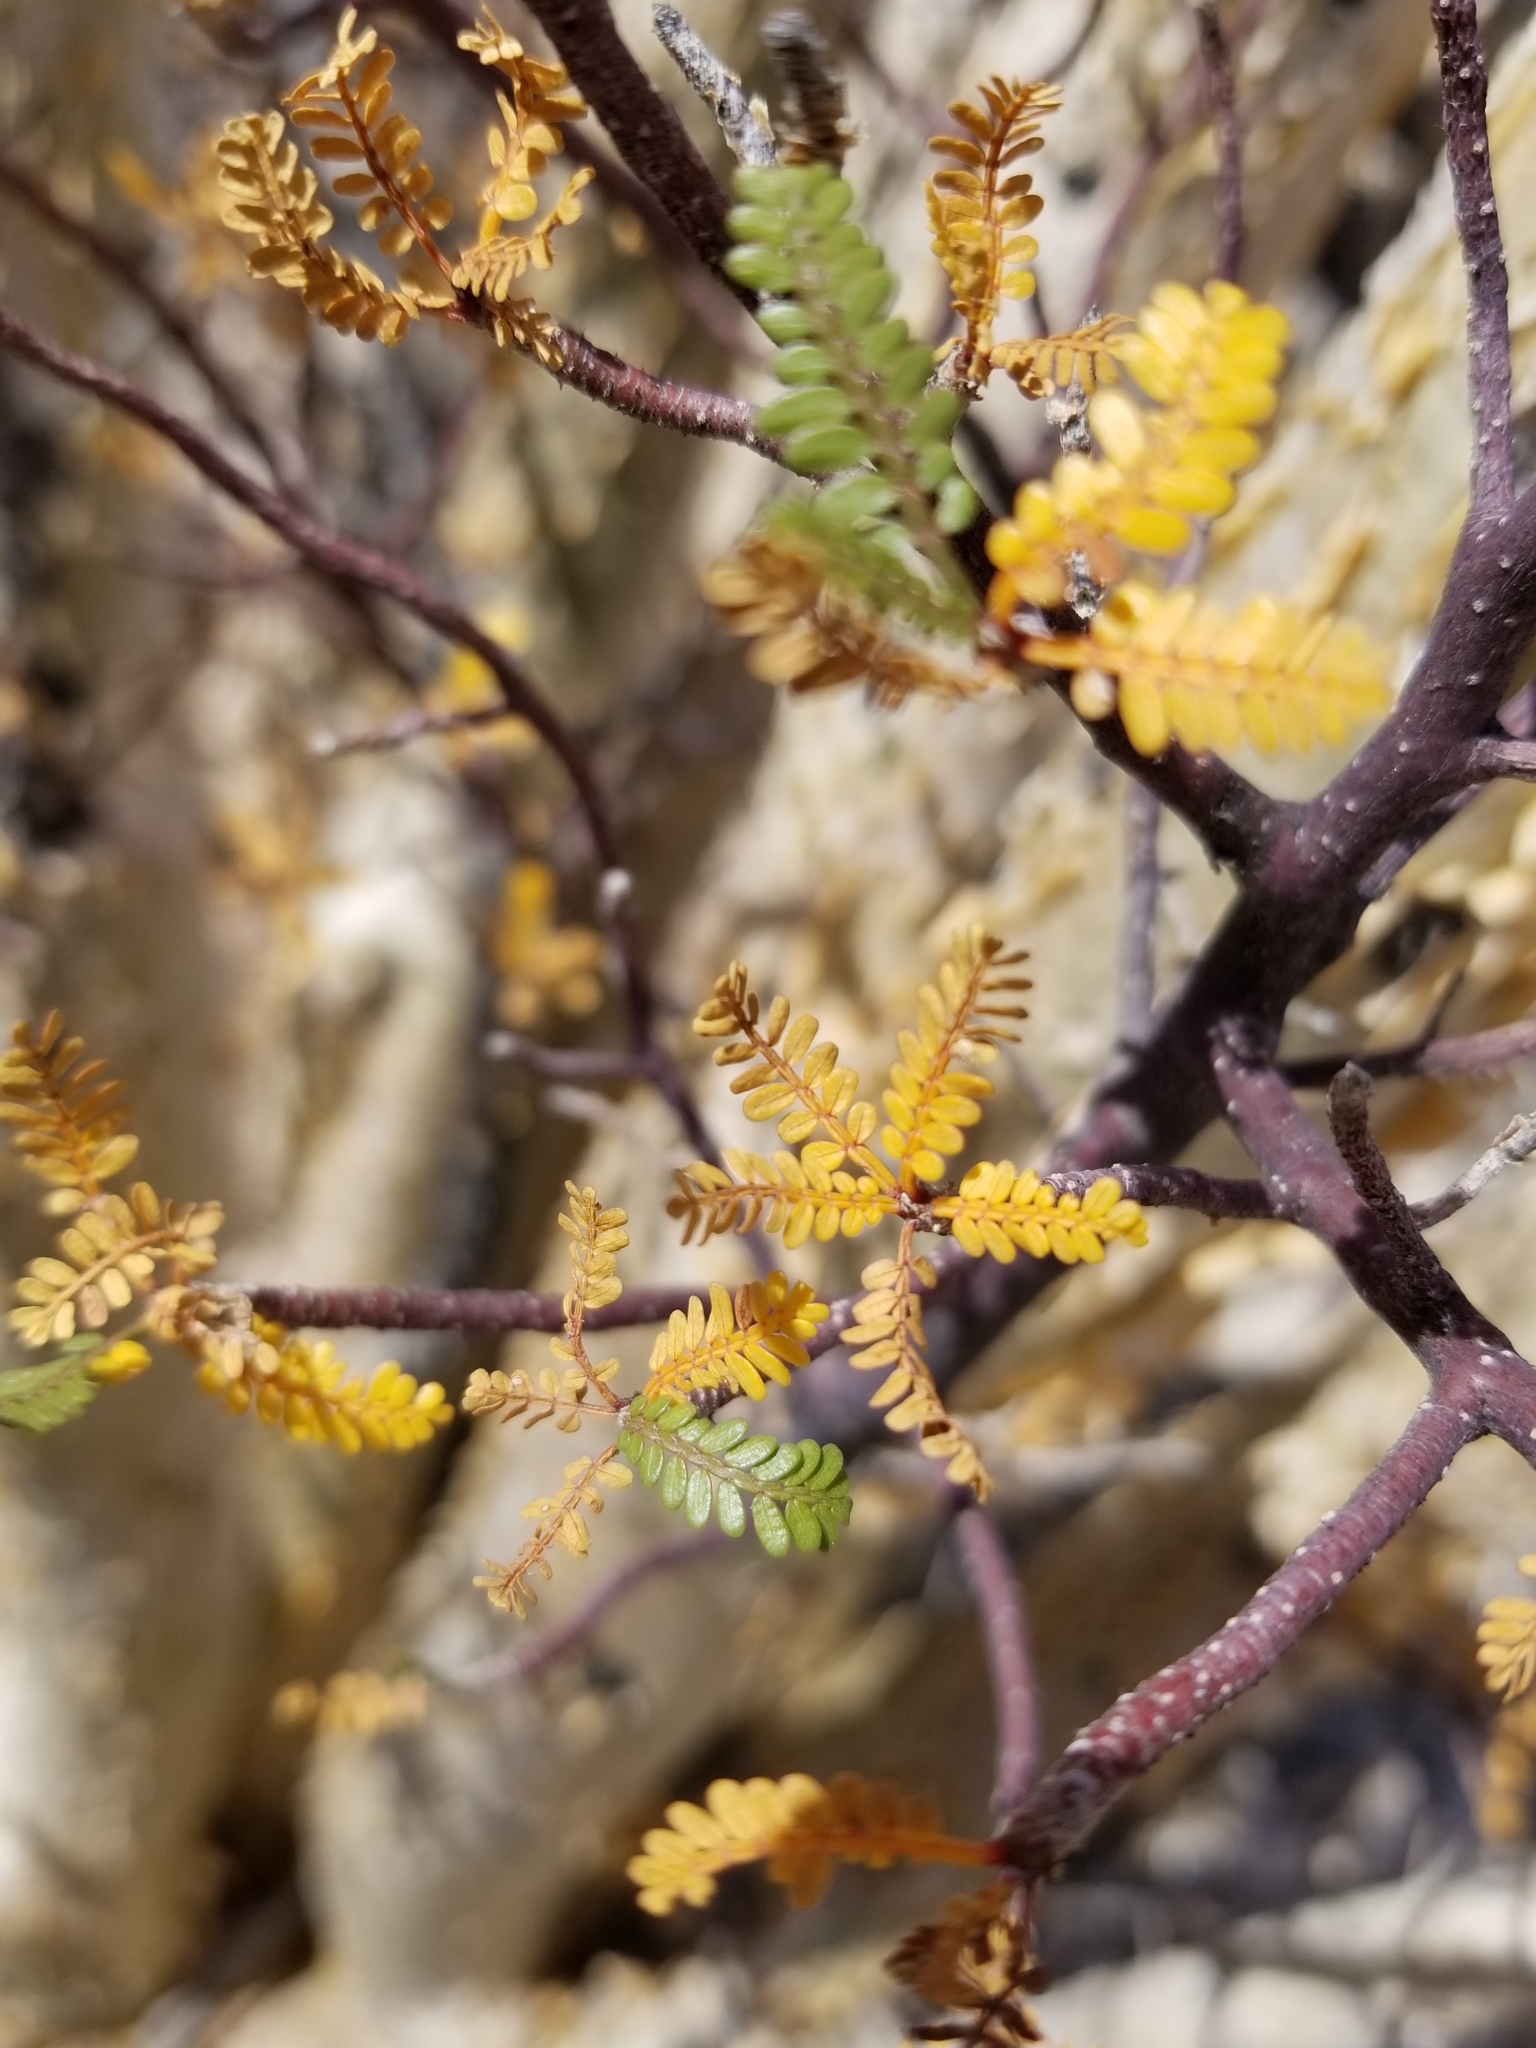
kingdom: Plantae
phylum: Tracheophyta
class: Magnoliopsida
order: Sapindales
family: Burseraceae
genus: Bursera
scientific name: Bursera microphylla
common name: Elephant tree
